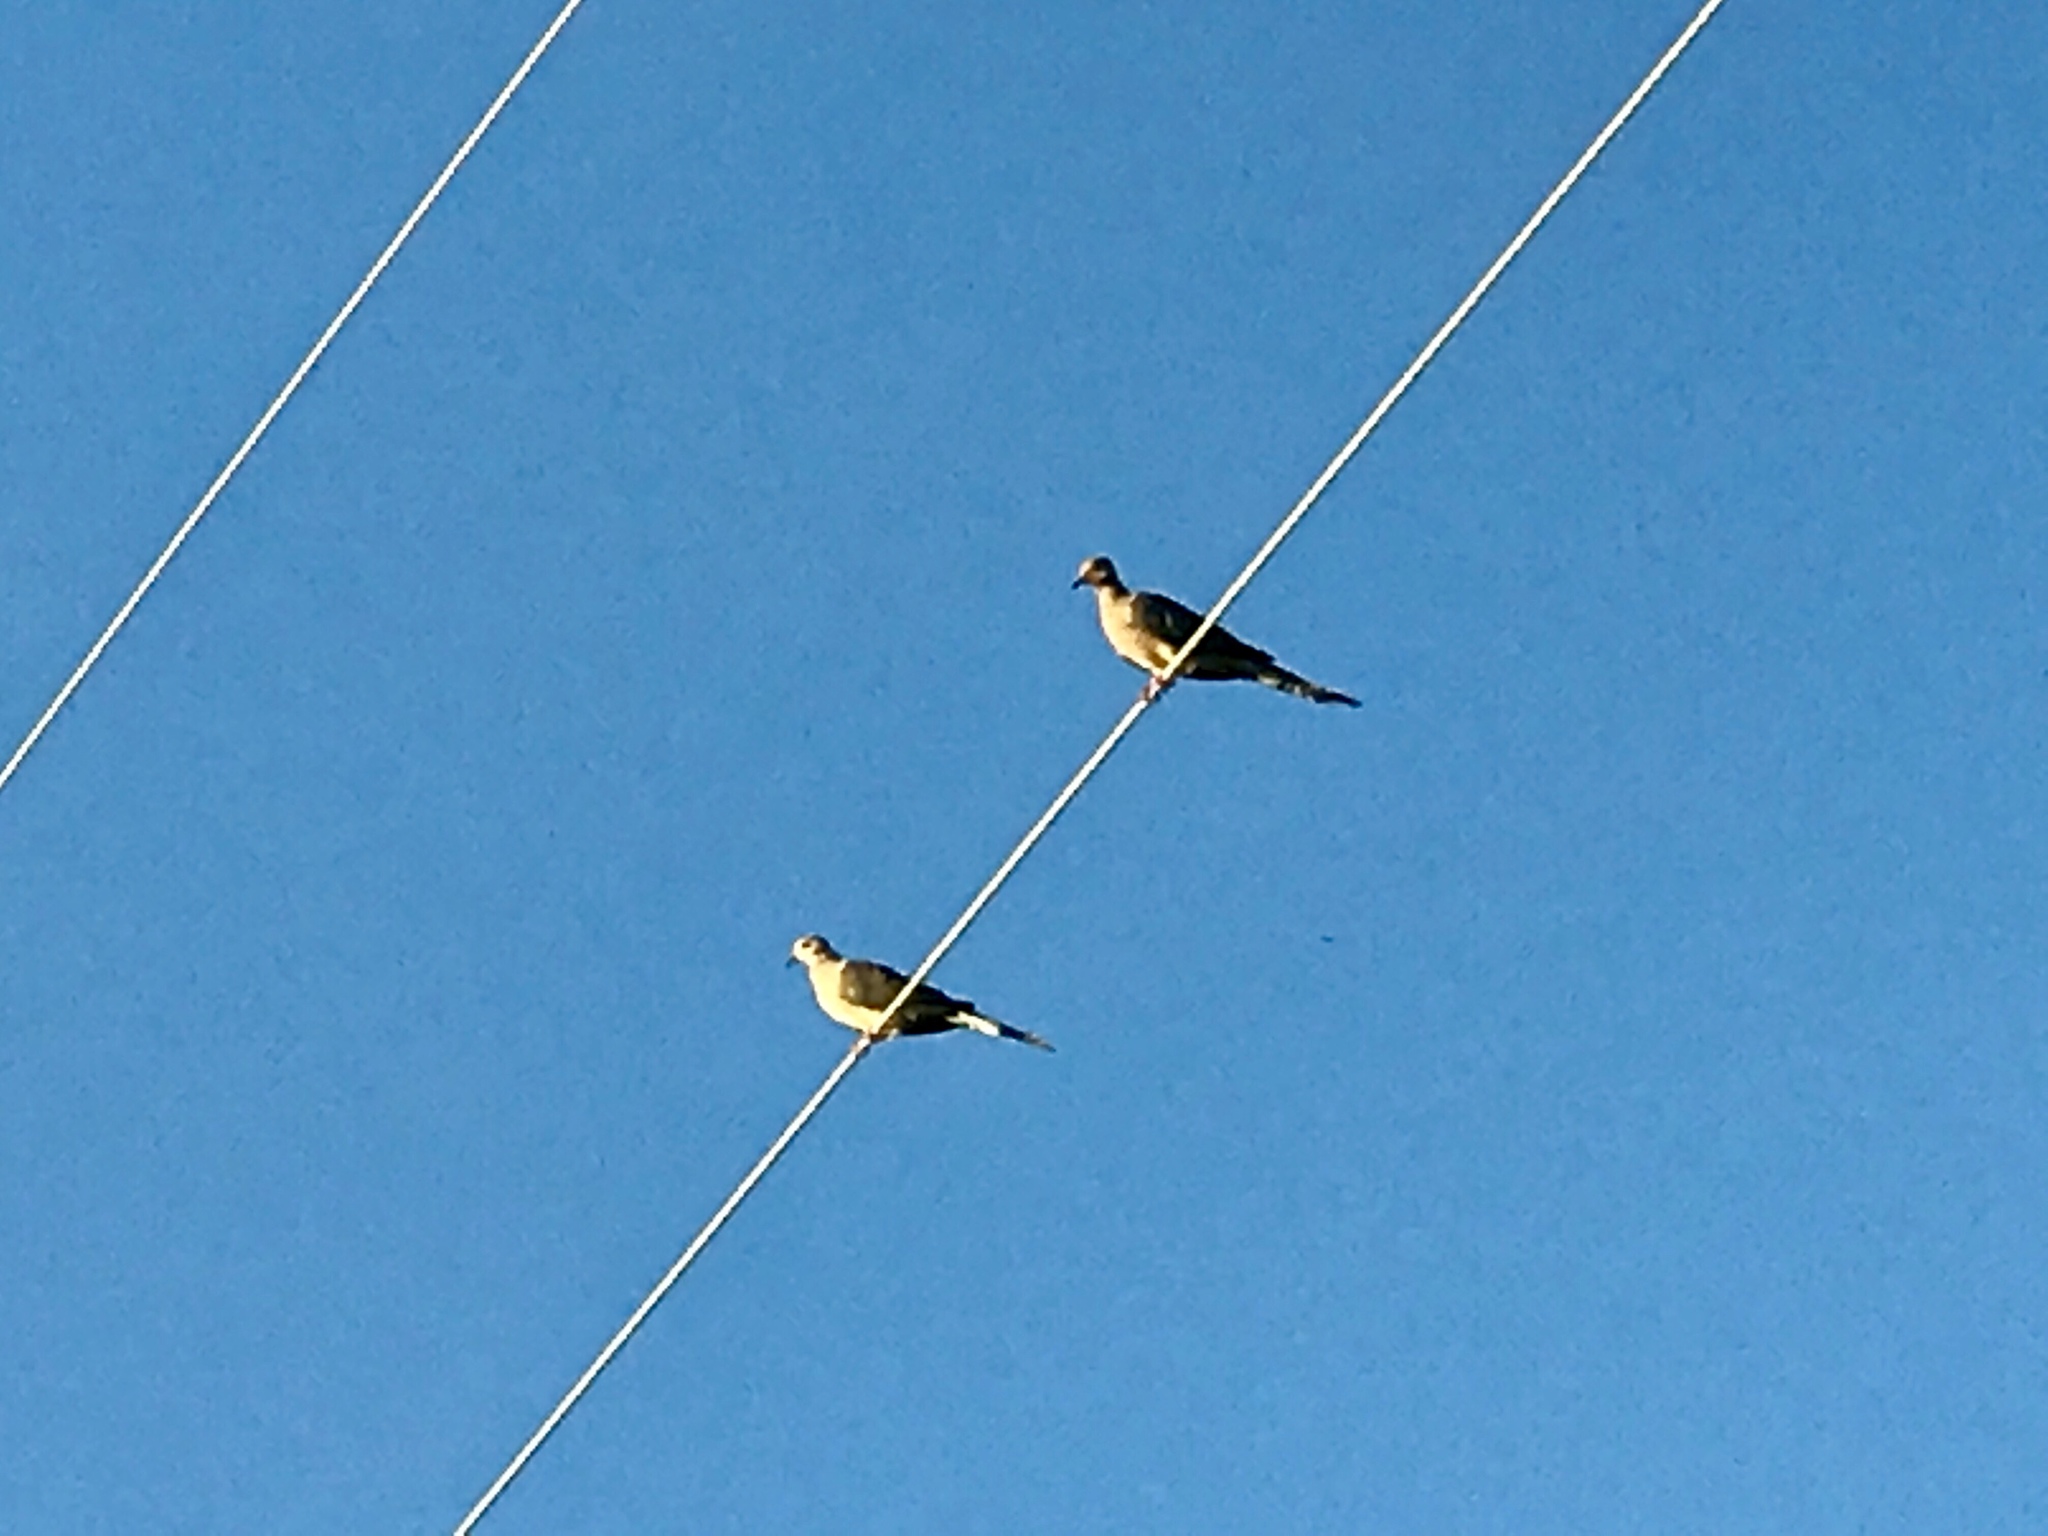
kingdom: Animalia
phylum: Chordata
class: Aves
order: Columbiformes
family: Columbidae
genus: Zenaida
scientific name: Zenaida macroura
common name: Mourning dove
